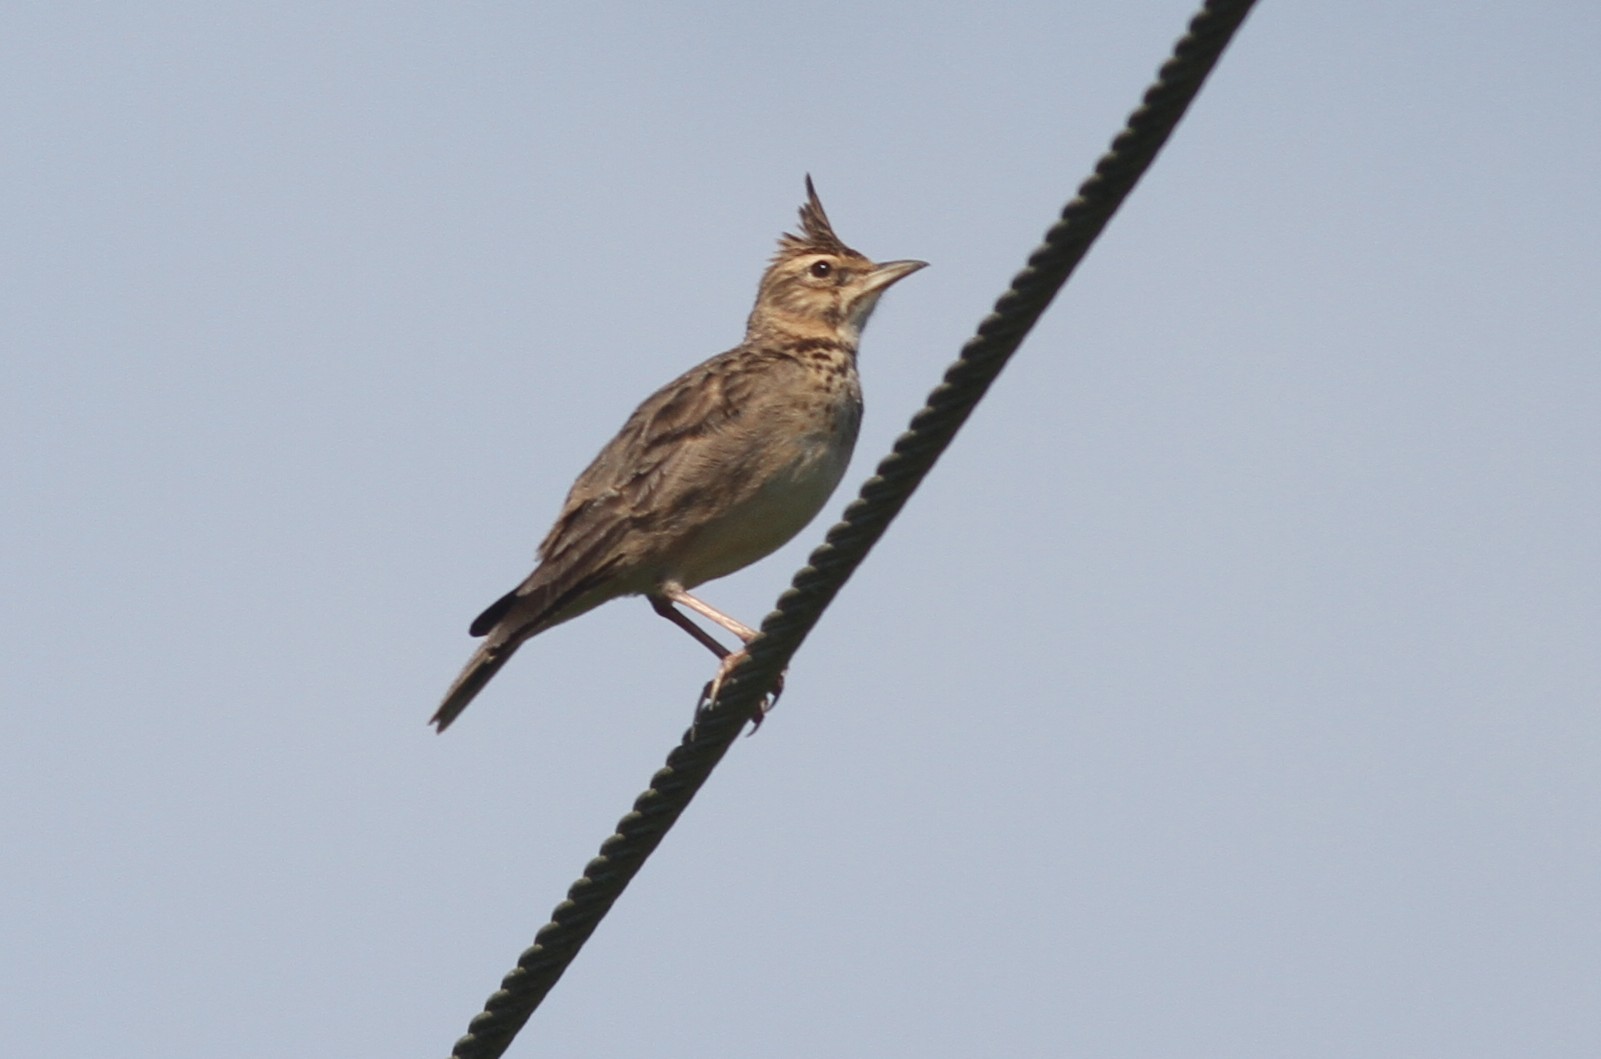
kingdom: Animalia
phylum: Chordata
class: Aves
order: Passeriformes
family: Alaudidae
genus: Galerida
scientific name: Galerida malabarica
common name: Malabar lark
